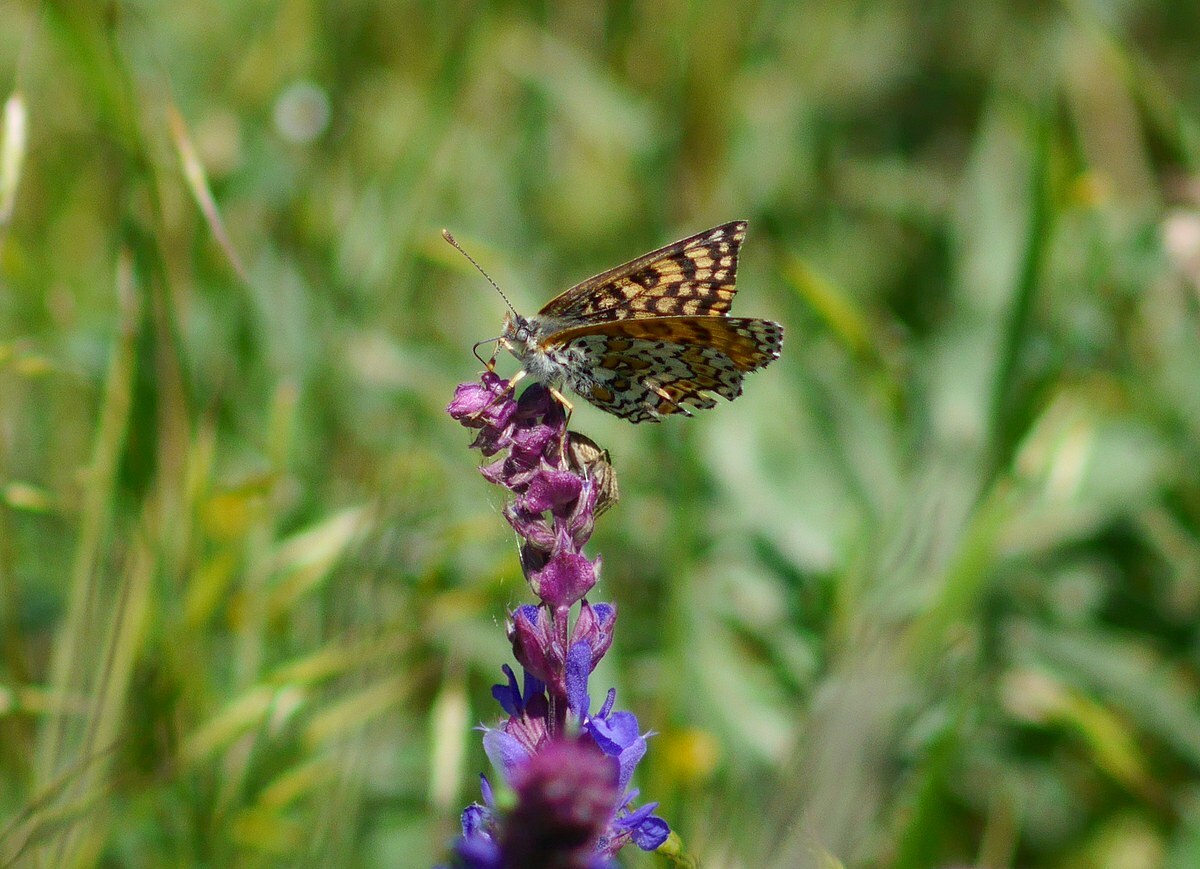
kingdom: Animalia
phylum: Arthropoda
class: Insecta
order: Lepidoptera
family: Nymphalidae
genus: Melitaea
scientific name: Melitaea cinxia
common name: Glanville fritillary
